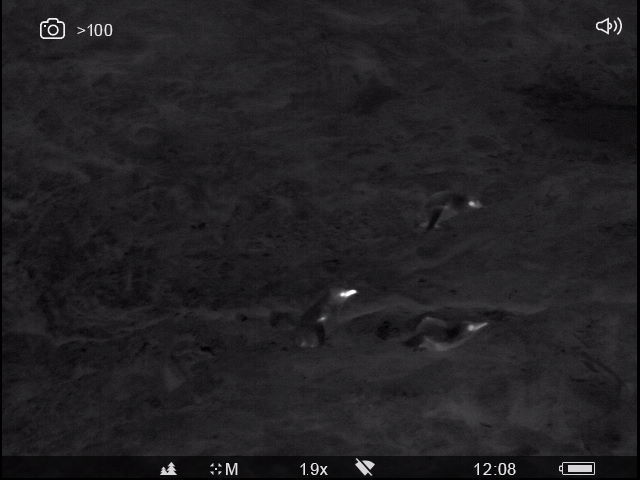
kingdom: Animalia
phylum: Chordata
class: Aves
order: Sphenisciformes
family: Spheniscidae
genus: Eudyptula
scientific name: Eudyptula minor
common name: Little penguin
